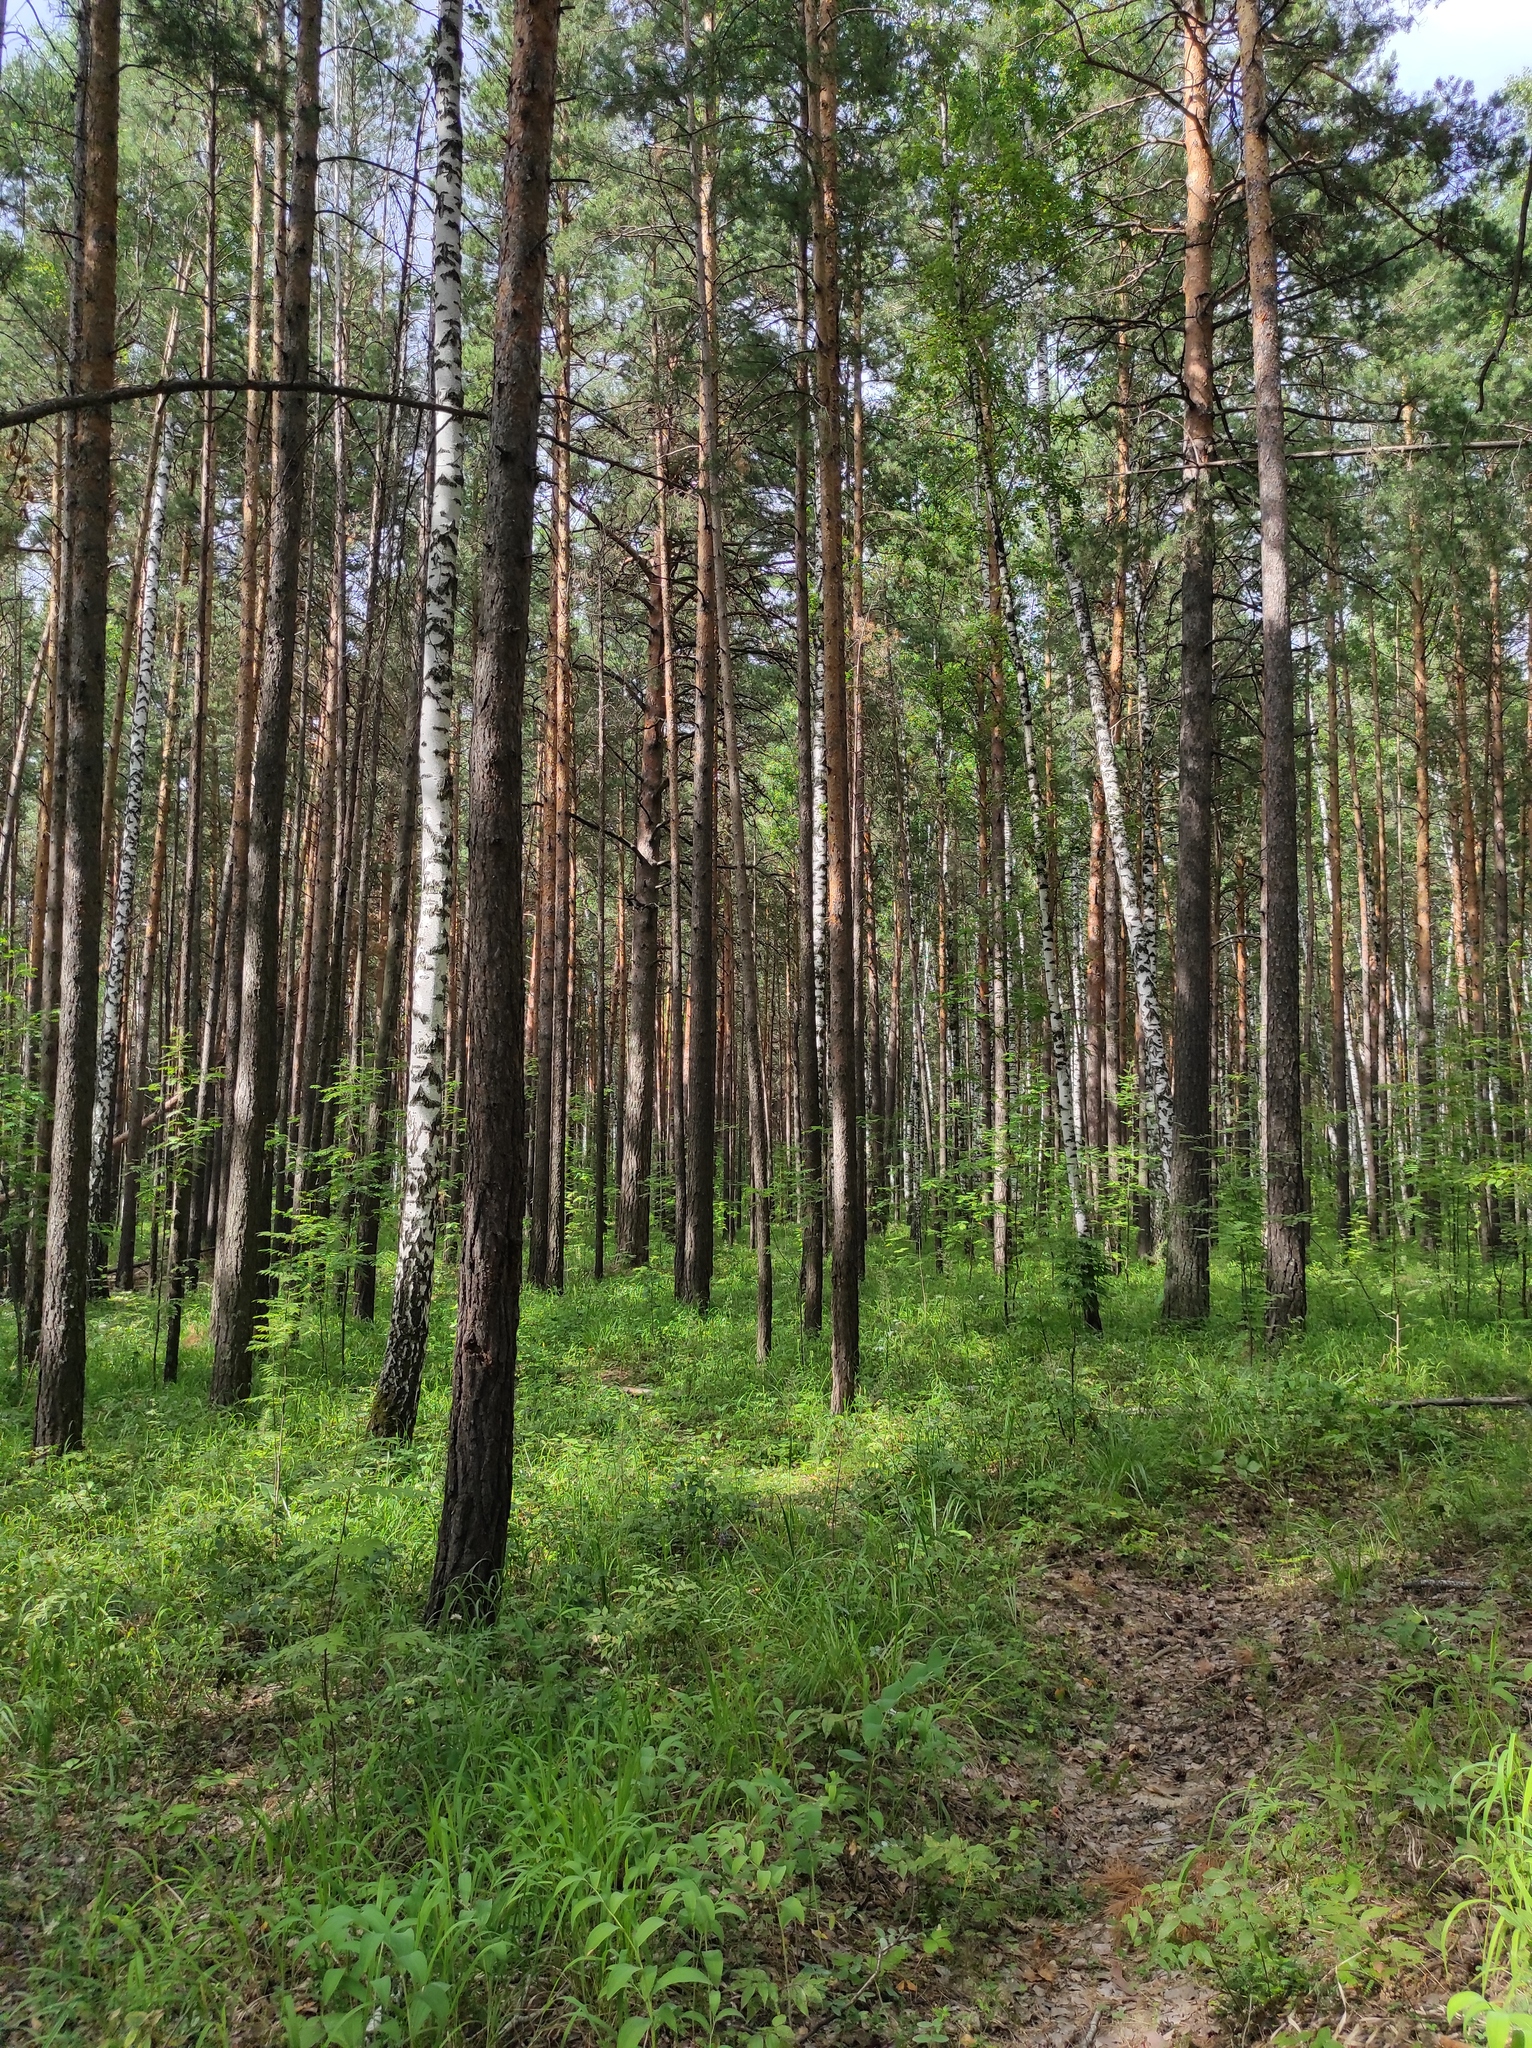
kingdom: Plantae
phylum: Tracheophyta
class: Pinopsida
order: Pinales
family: Pinaceae
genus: Pinus
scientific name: Pinus sylvestris
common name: Scots pine
